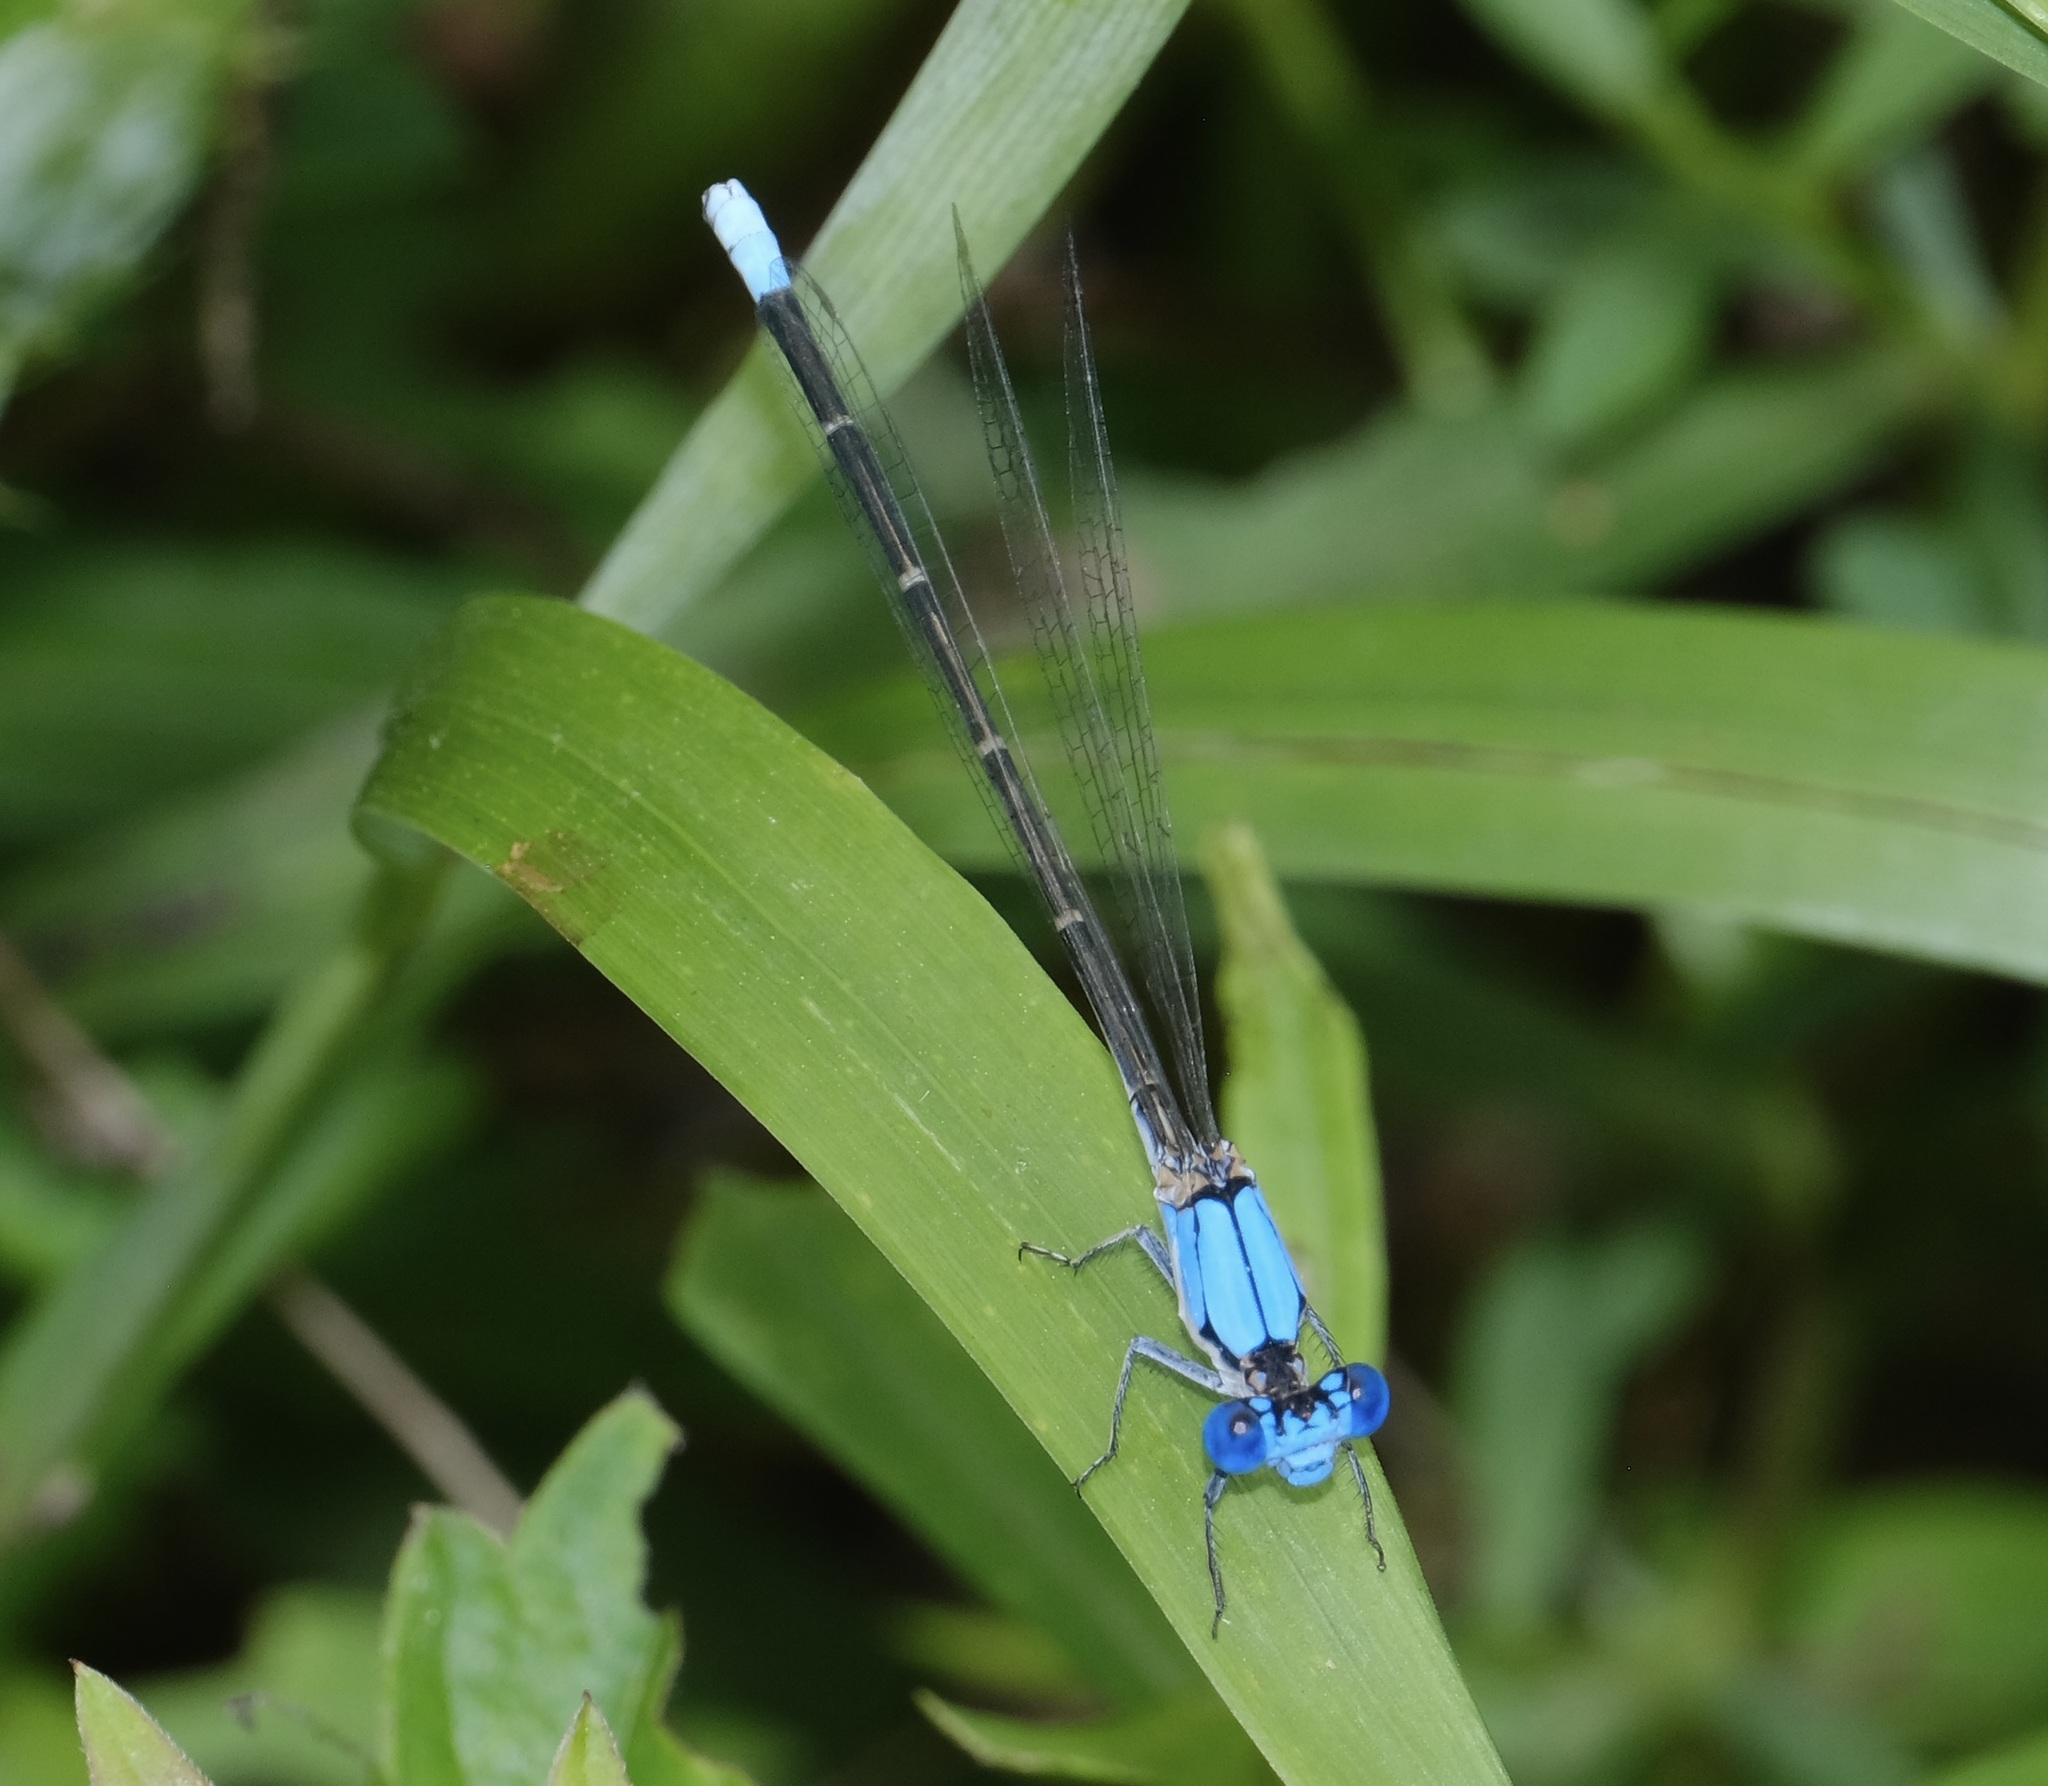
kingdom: Animalia
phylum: Arthropoda
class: Insecta
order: Odonata
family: Coenagrionidae
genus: Argia
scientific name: Argia apicalis
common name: Blue-fronted dancer
